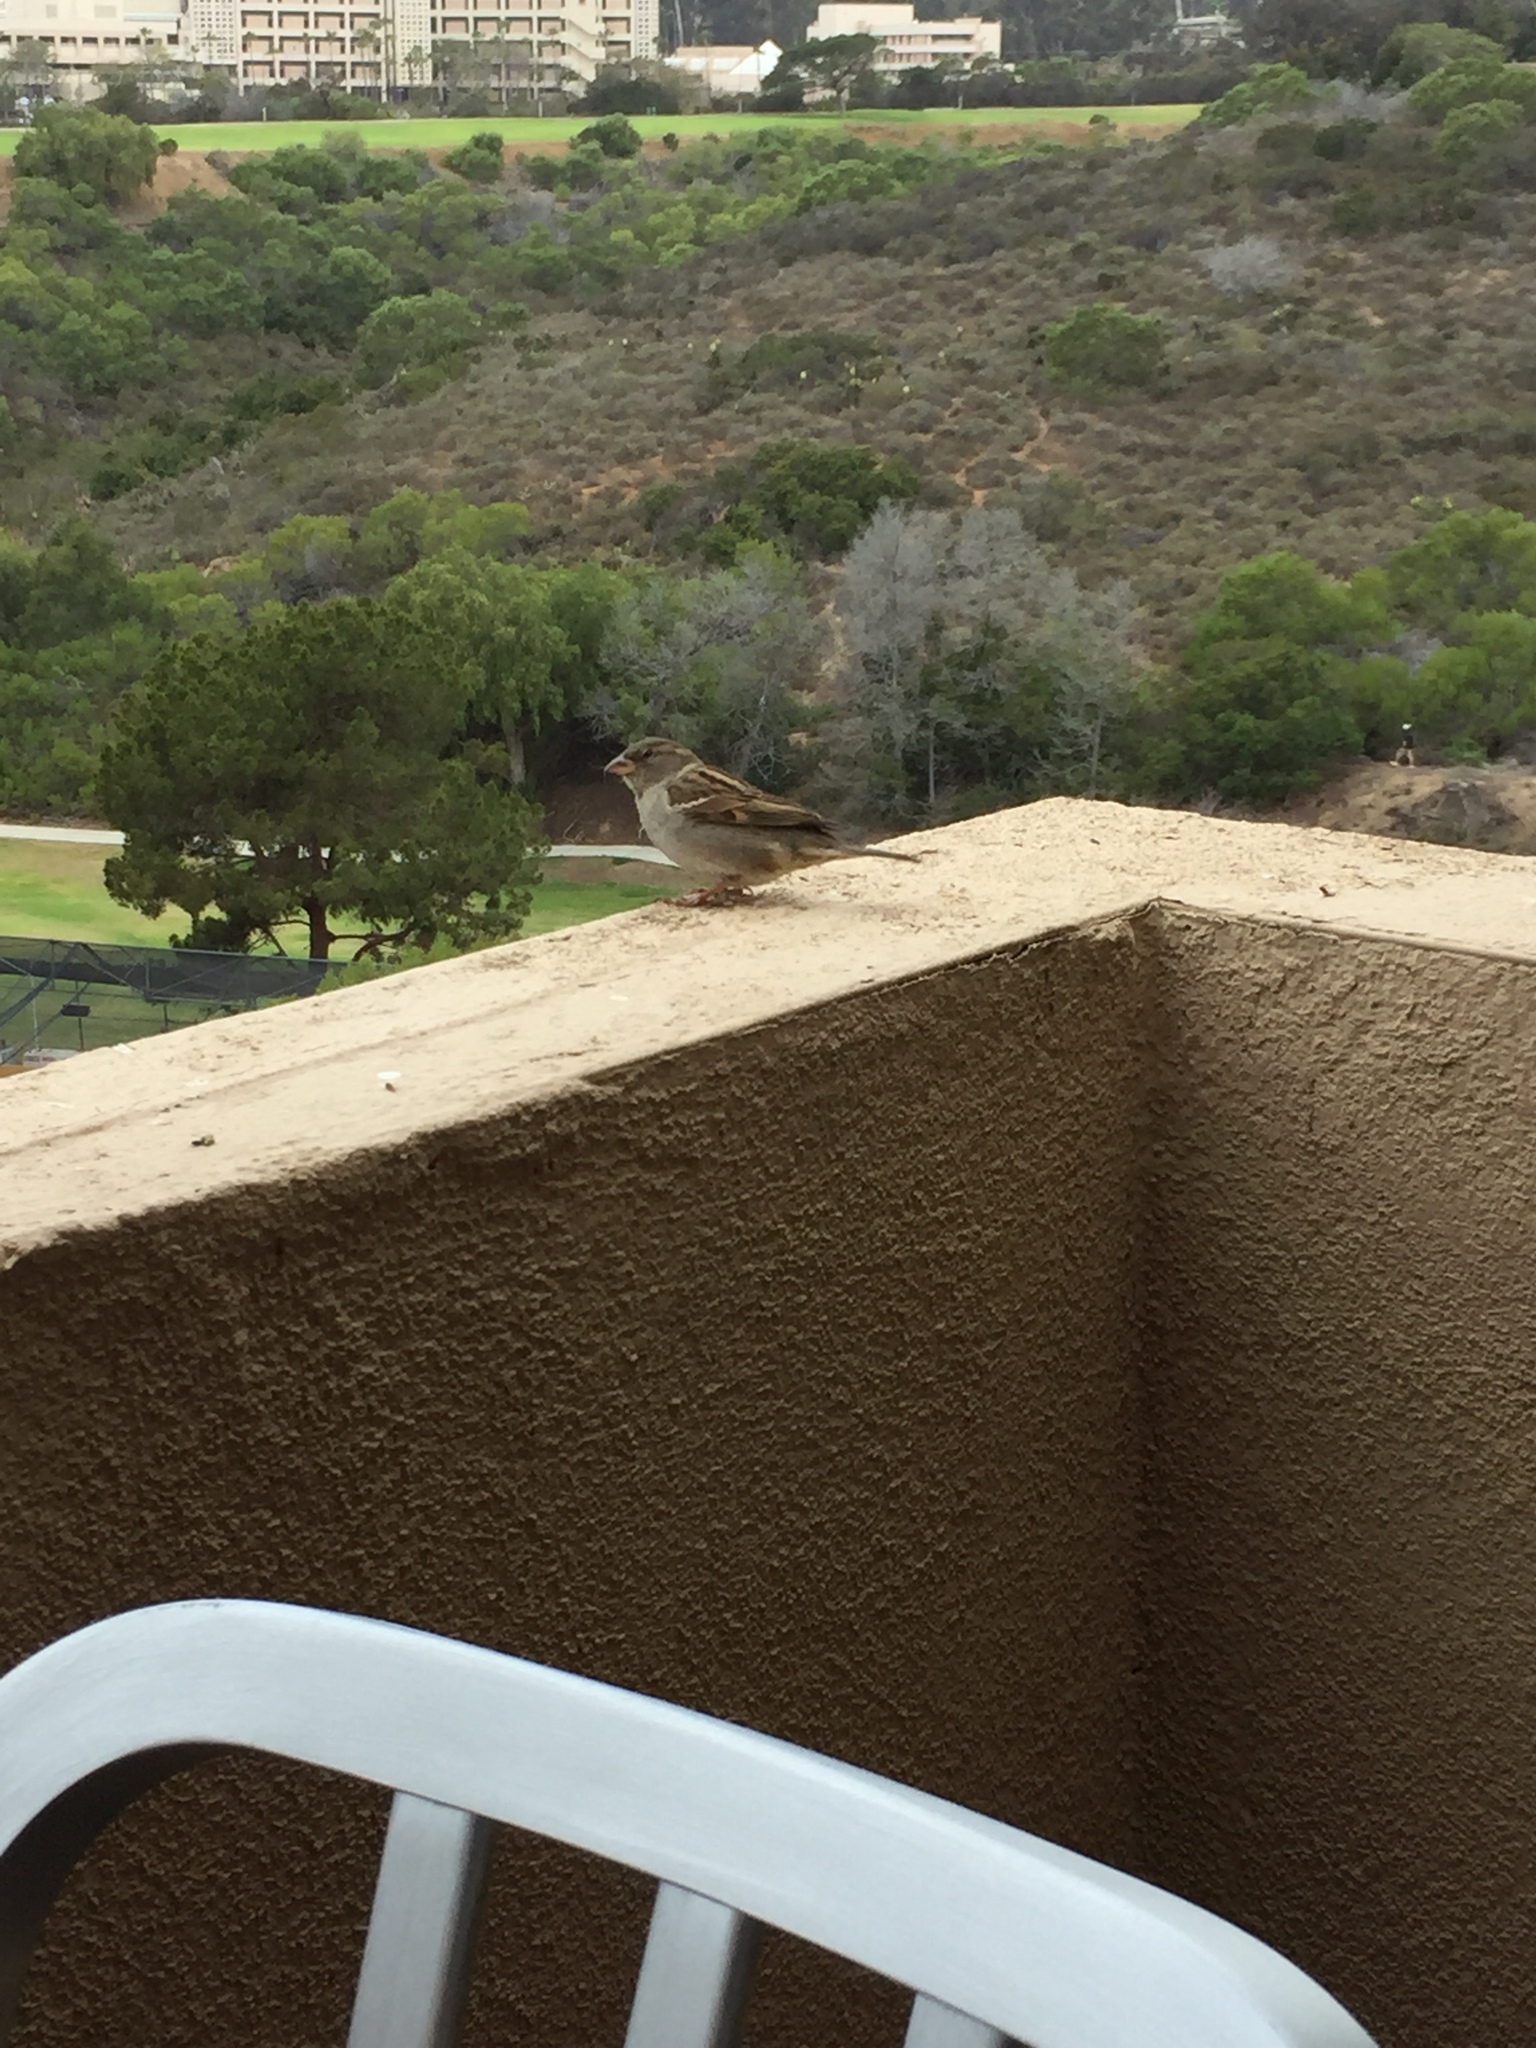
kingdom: Animalia
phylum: Chordata
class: Aves
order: Passeriformes
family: Passeridae
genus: Passer
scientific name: Passer domesticus
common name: House sparrow
